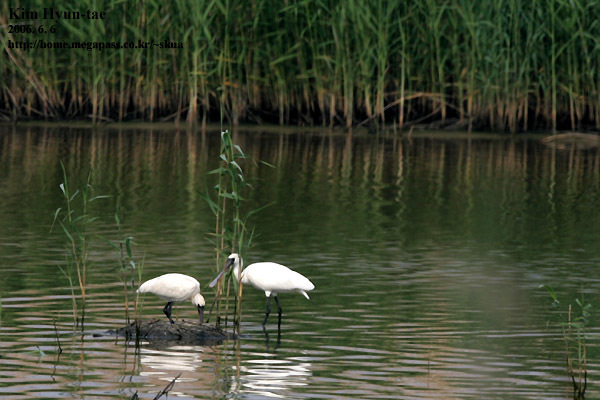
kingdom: Animalia
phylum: Chordata
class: Aves
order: Pelecaniformes
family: Threskiornithidae
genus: Platalea
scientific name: Platalea minor
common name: Black-faced spoonbill
